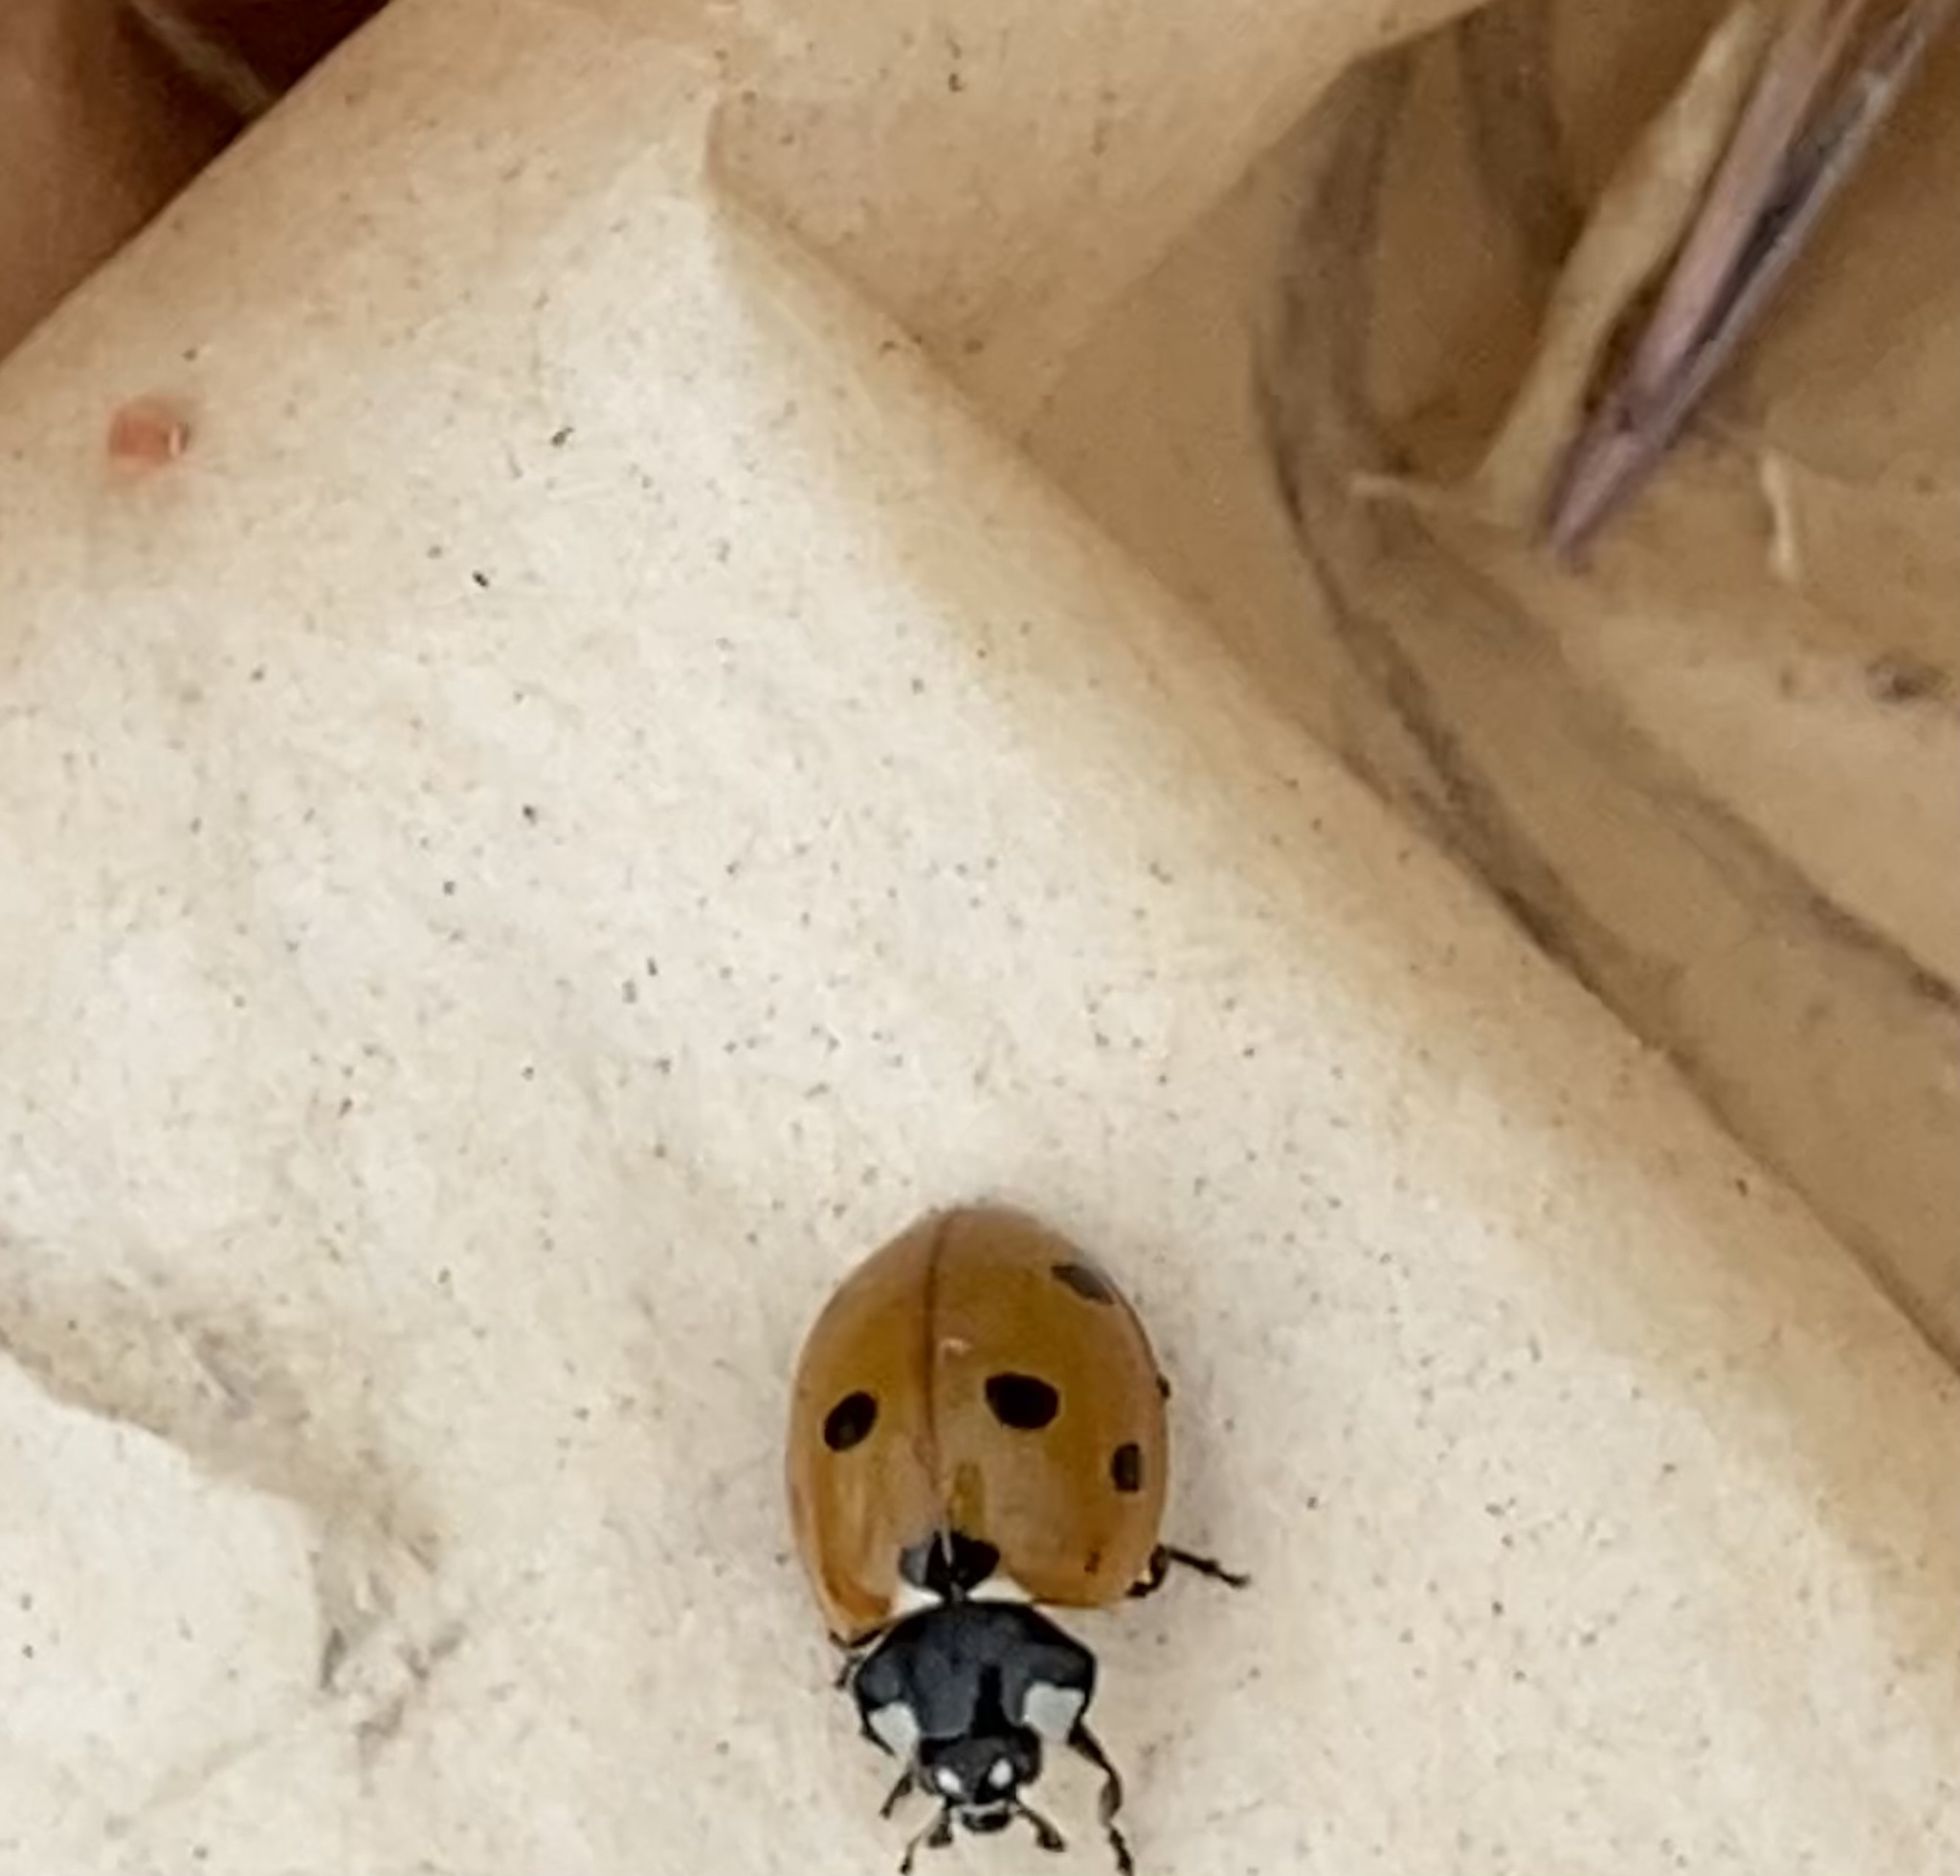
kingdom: Animalia
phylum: Arthropoda
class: Insecta
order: Coleoptera
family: Coccinellidae
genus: Coccinella
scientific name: Coccinella septempunctata
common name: Sevenspotted lady beetle
